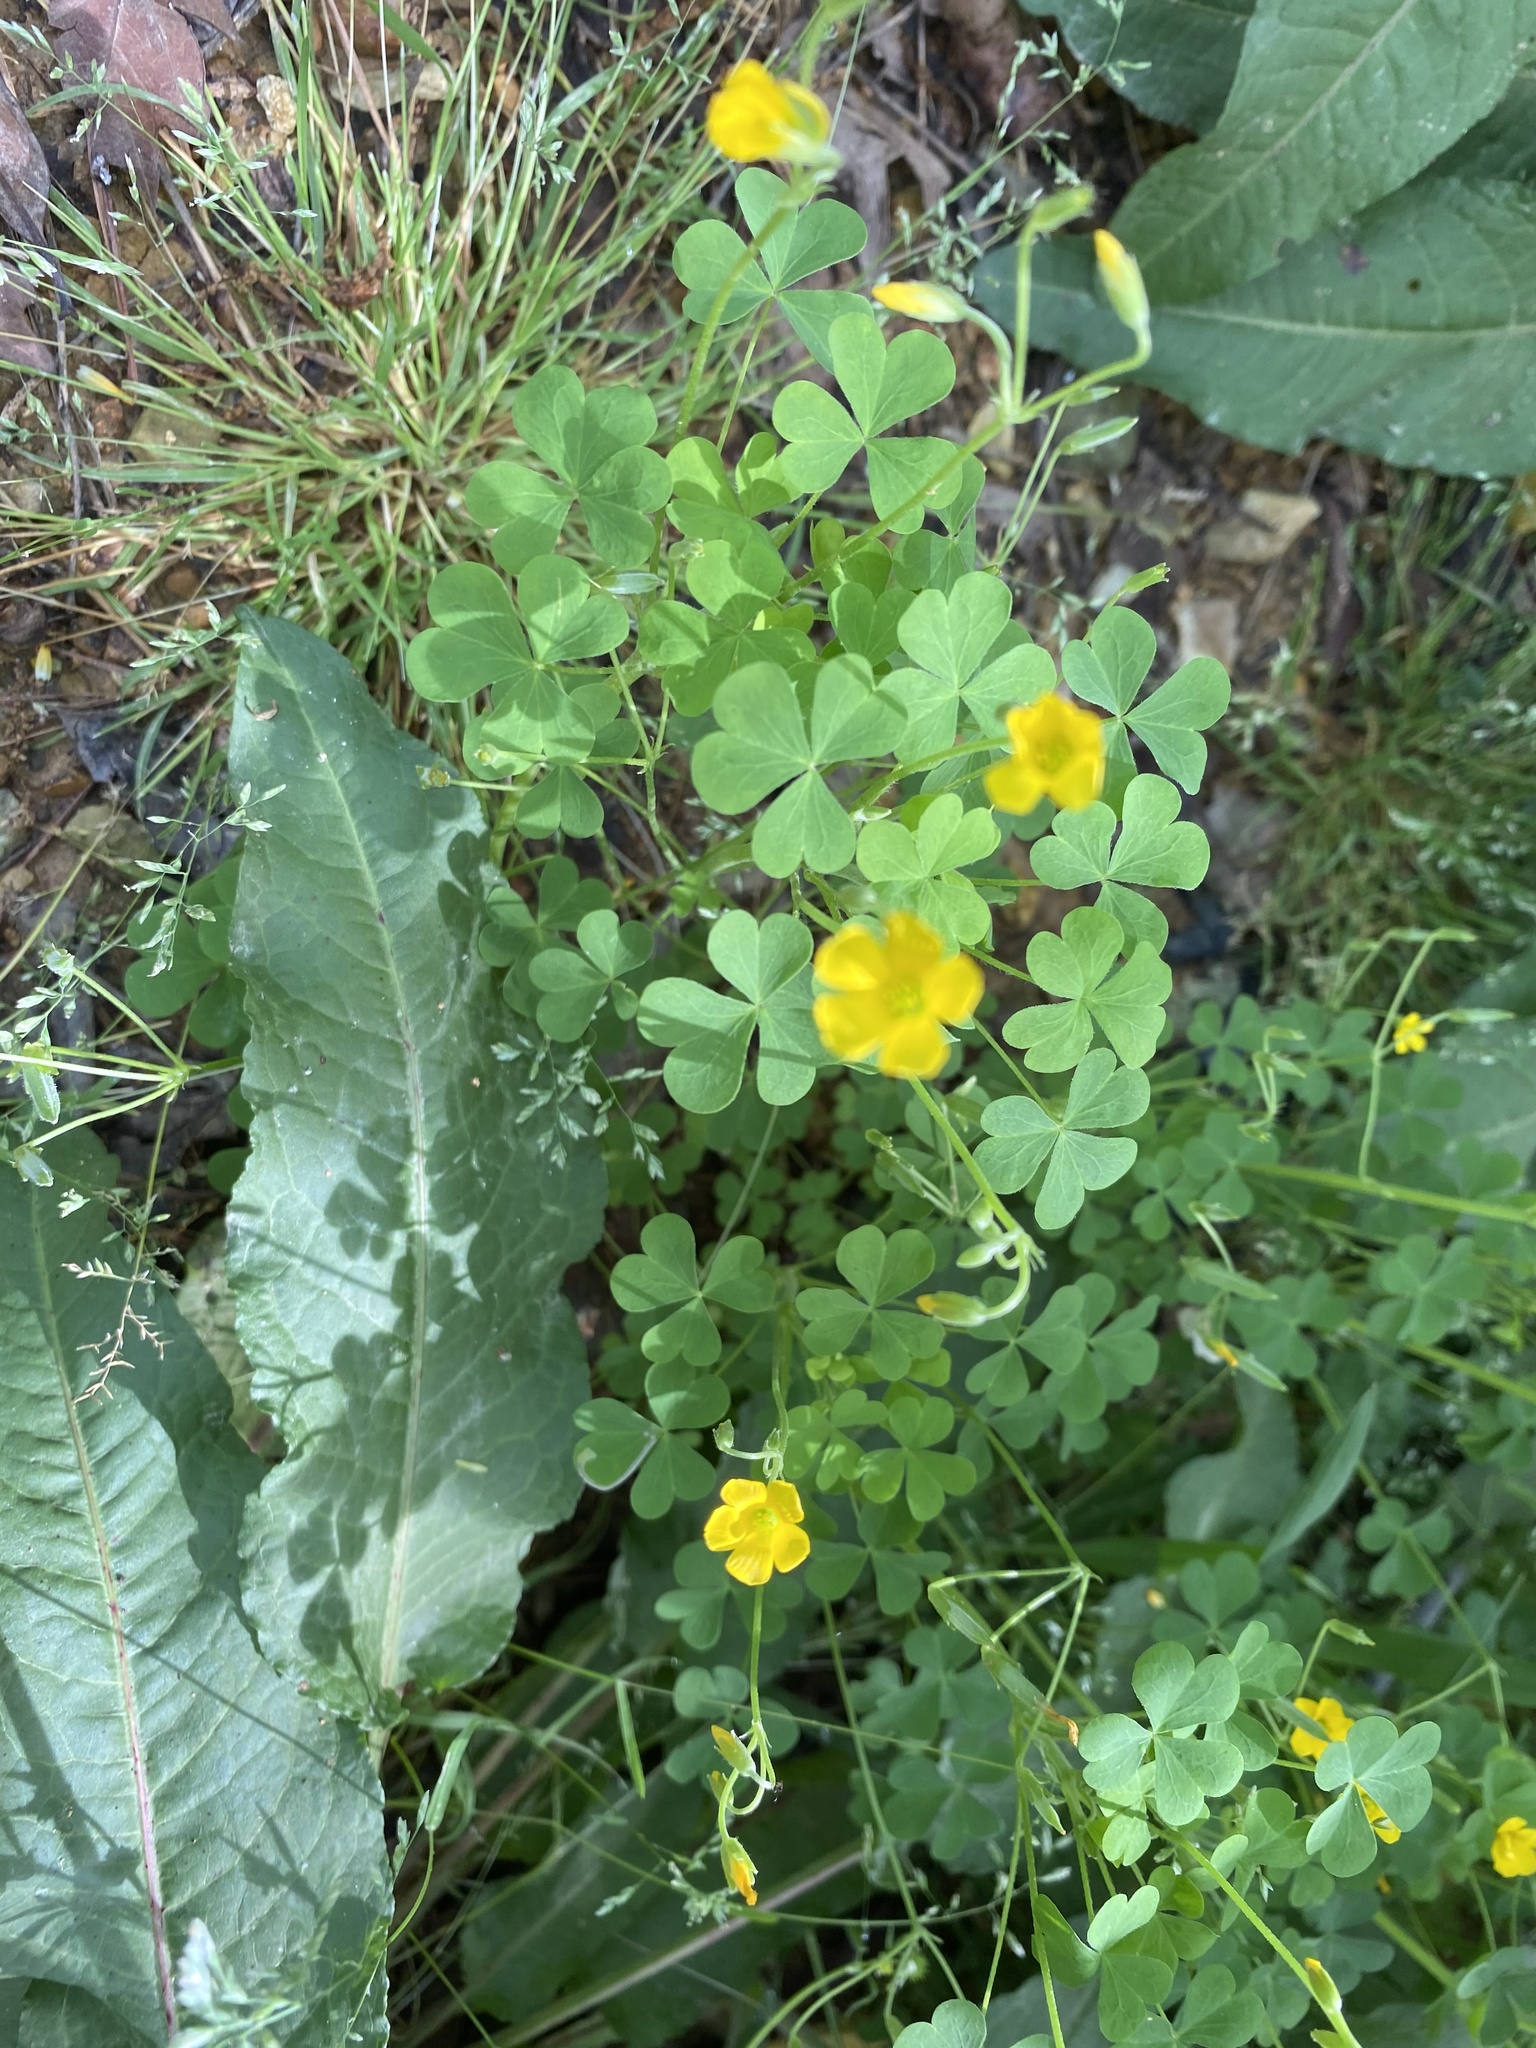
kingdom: Plantae
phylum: Tracheophyta
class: Magnoliopsida
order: Oxalidales
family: Oxalidaceae
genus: Oxalis
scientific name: Oxalis corniculata
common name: Procumbent yellow-sorrel
